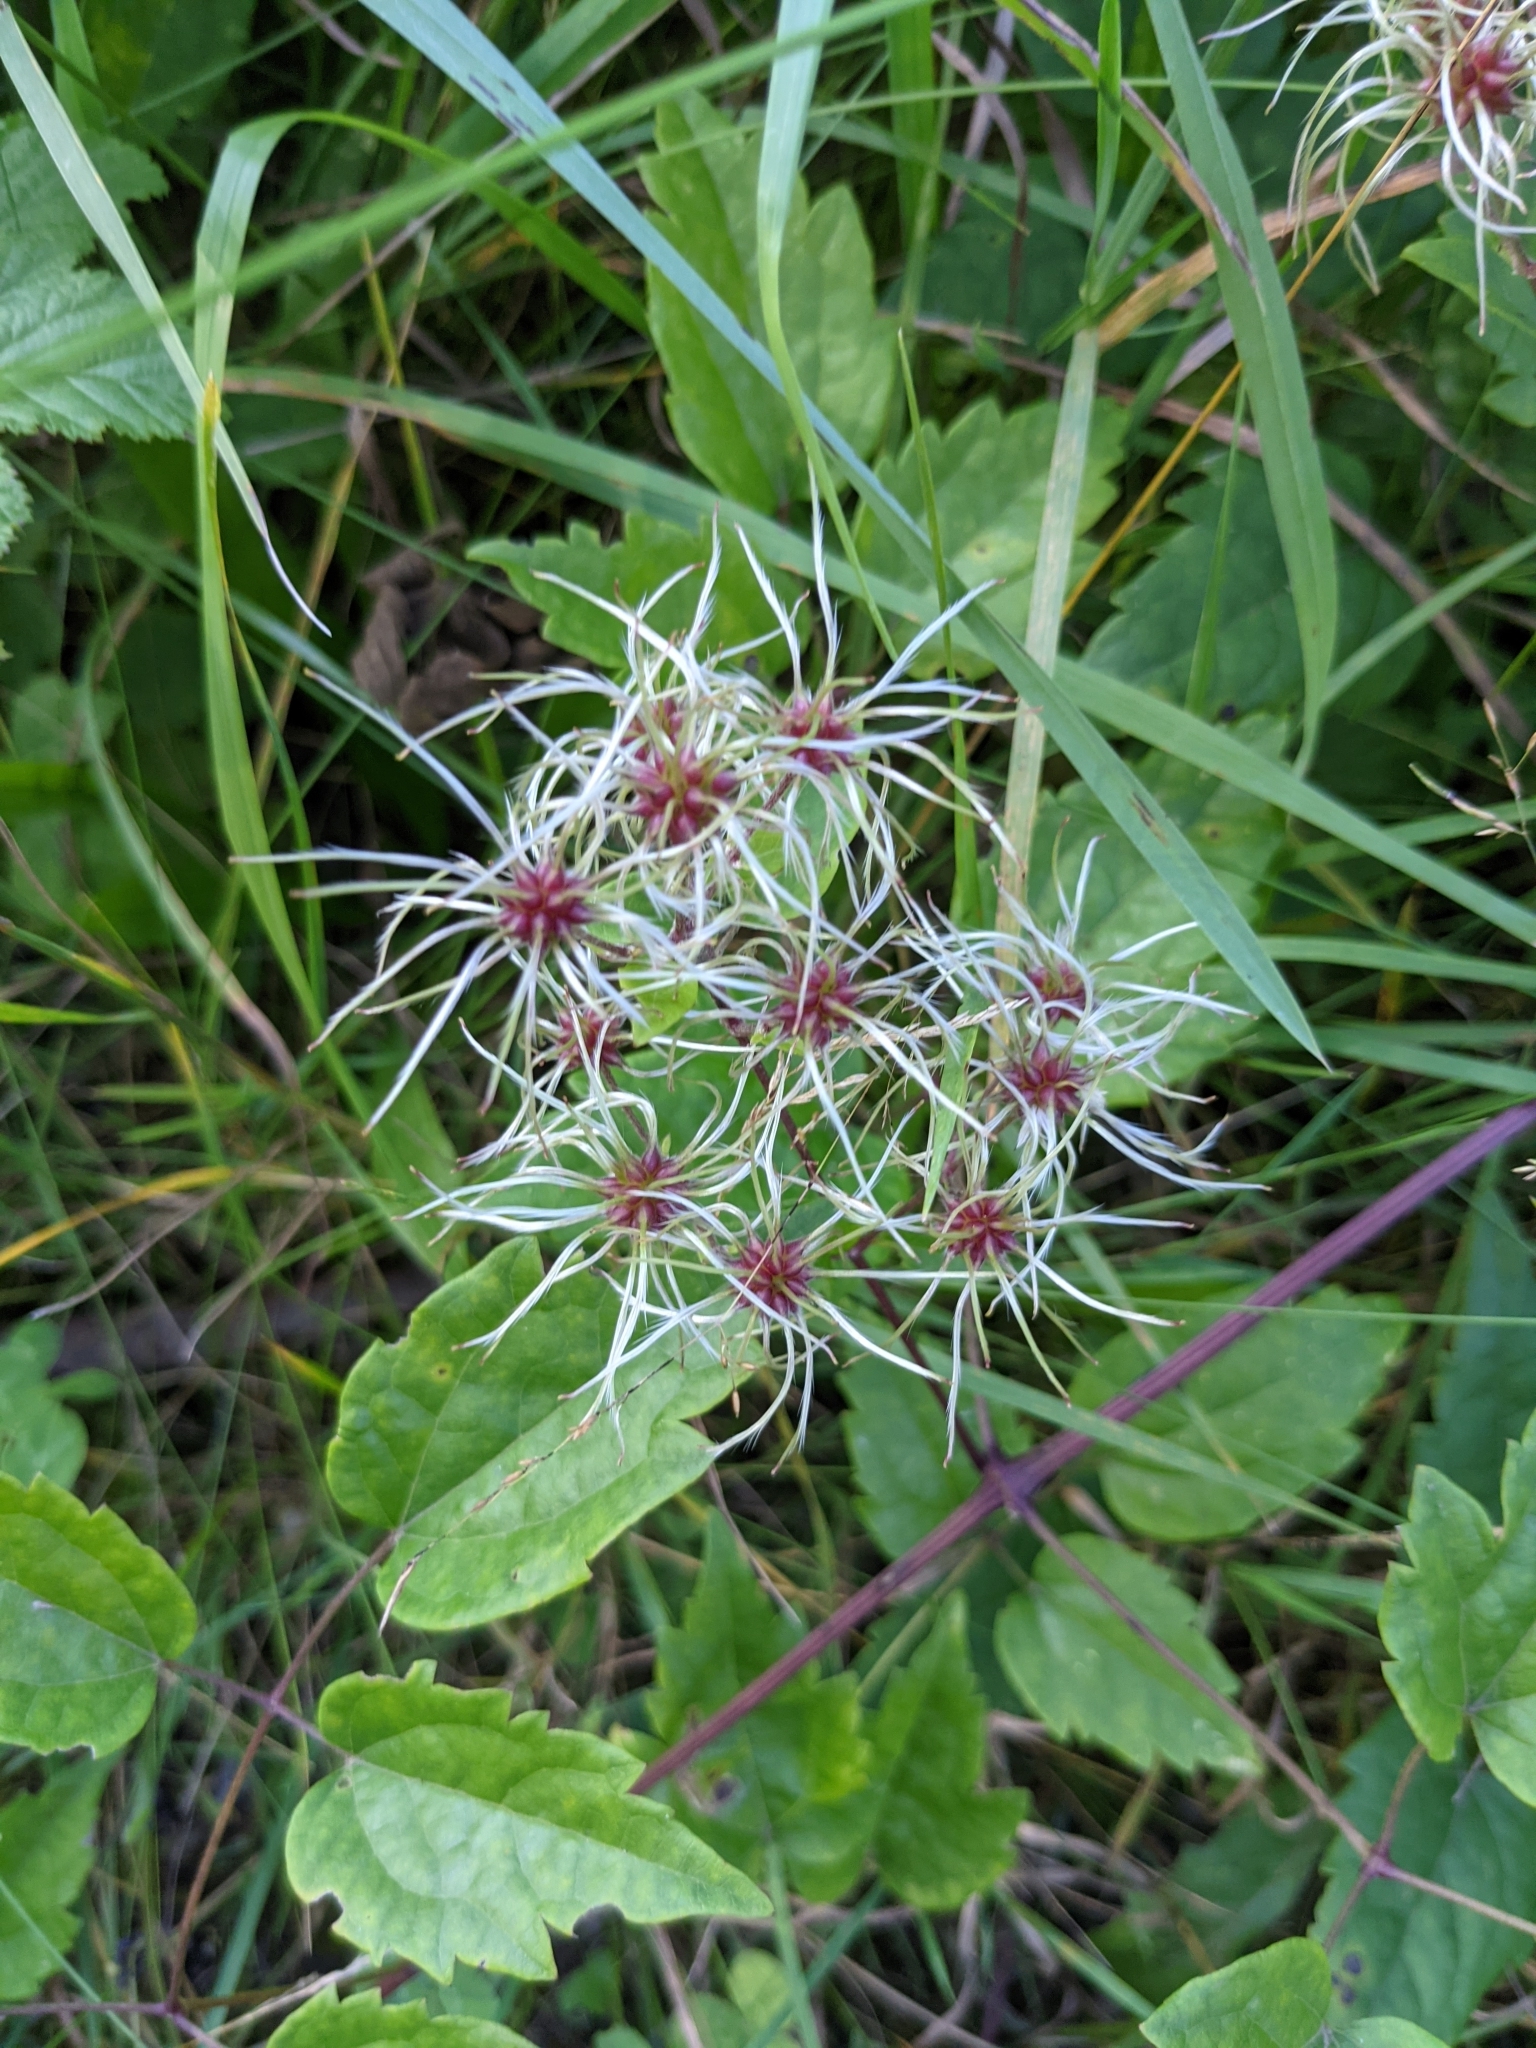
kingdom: Plantae
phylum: Tracheophyta
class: Magnoliopsida
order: Ranunculales
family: Ranunculaceae
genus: Clematis
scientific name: Clematis vitalba
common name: Evergreen clematis
